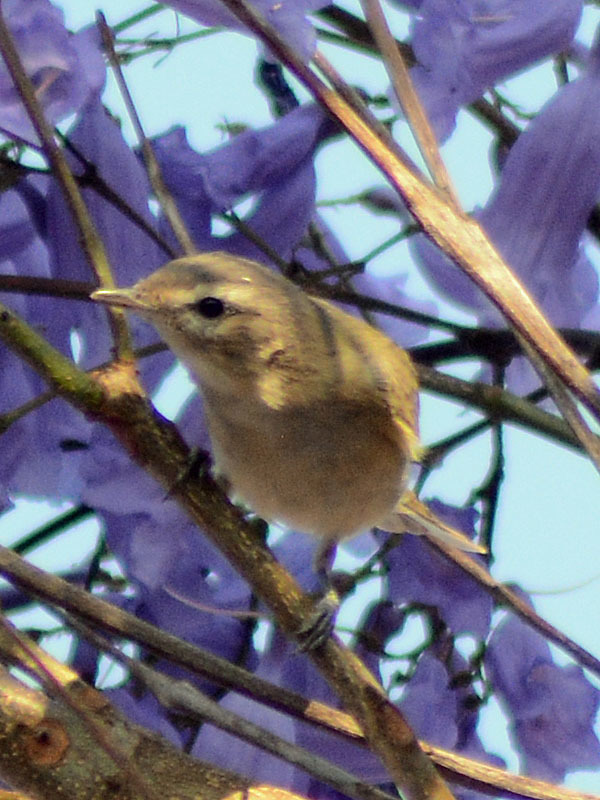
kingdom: Animalia
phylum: Chordata
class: Aves
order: Passeriformes
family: Vireonidae
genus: Vireo
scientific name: Vireo gilvus
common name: Warbling vireo
